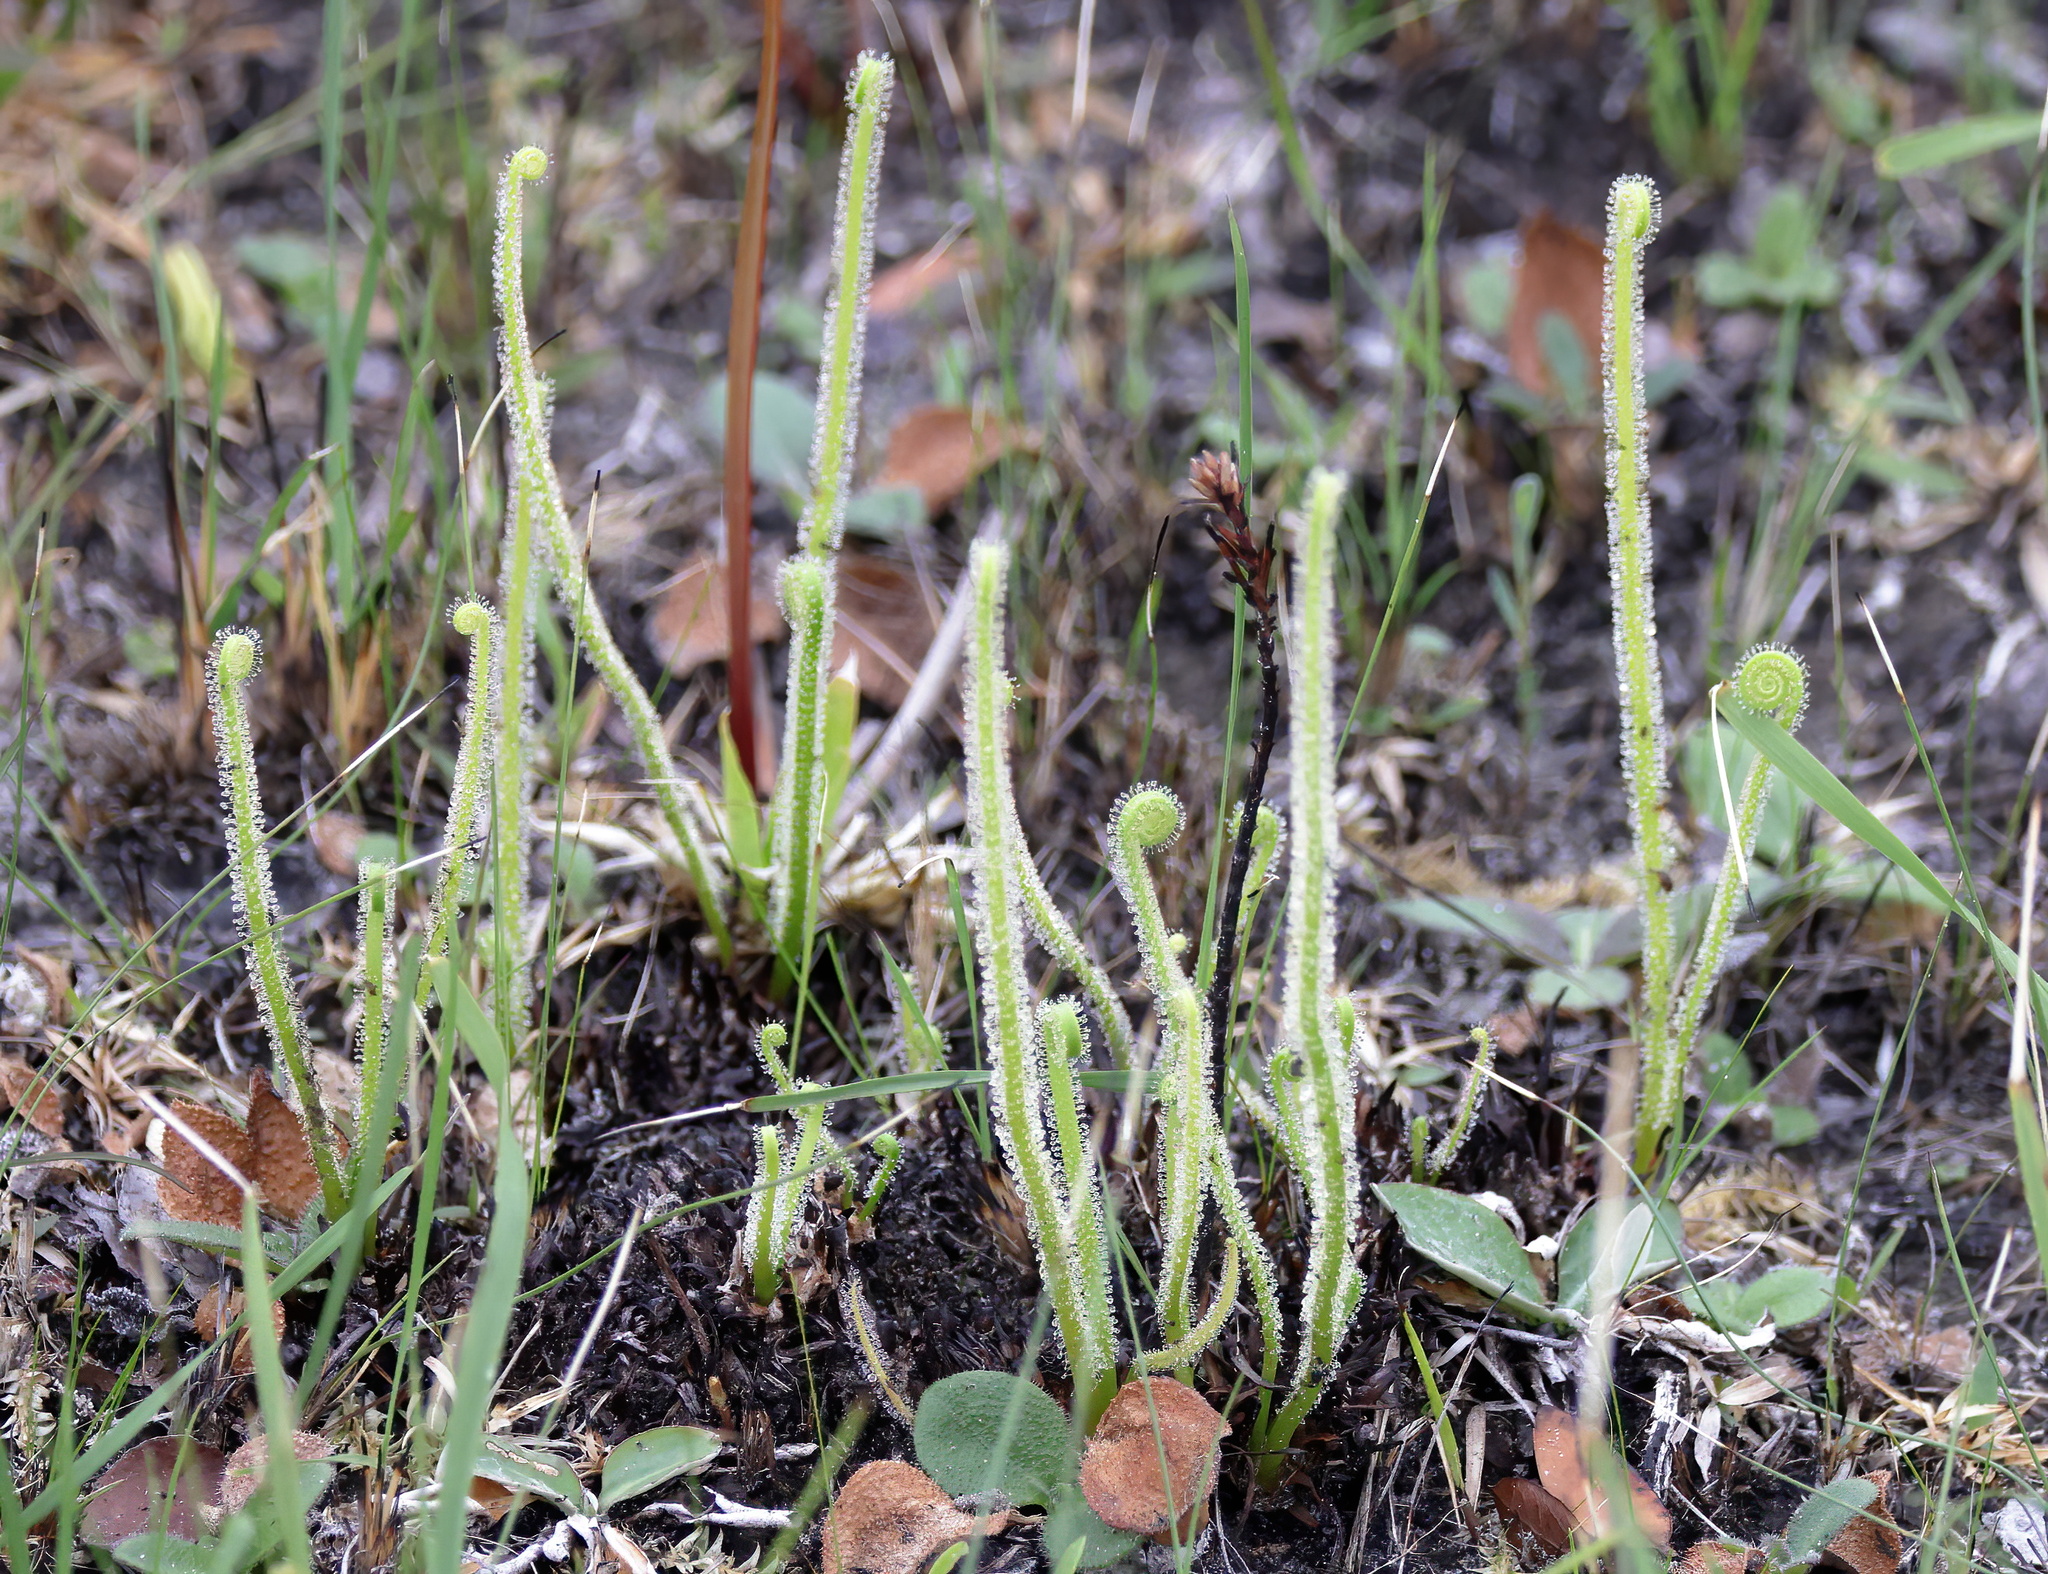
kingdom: Plantae
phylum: Tracheophyta
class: Magnoliopsida
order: Caryophyllales
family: Droseraceae
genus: Drosera
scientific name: Drosera filiformis
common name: Dew-thread
